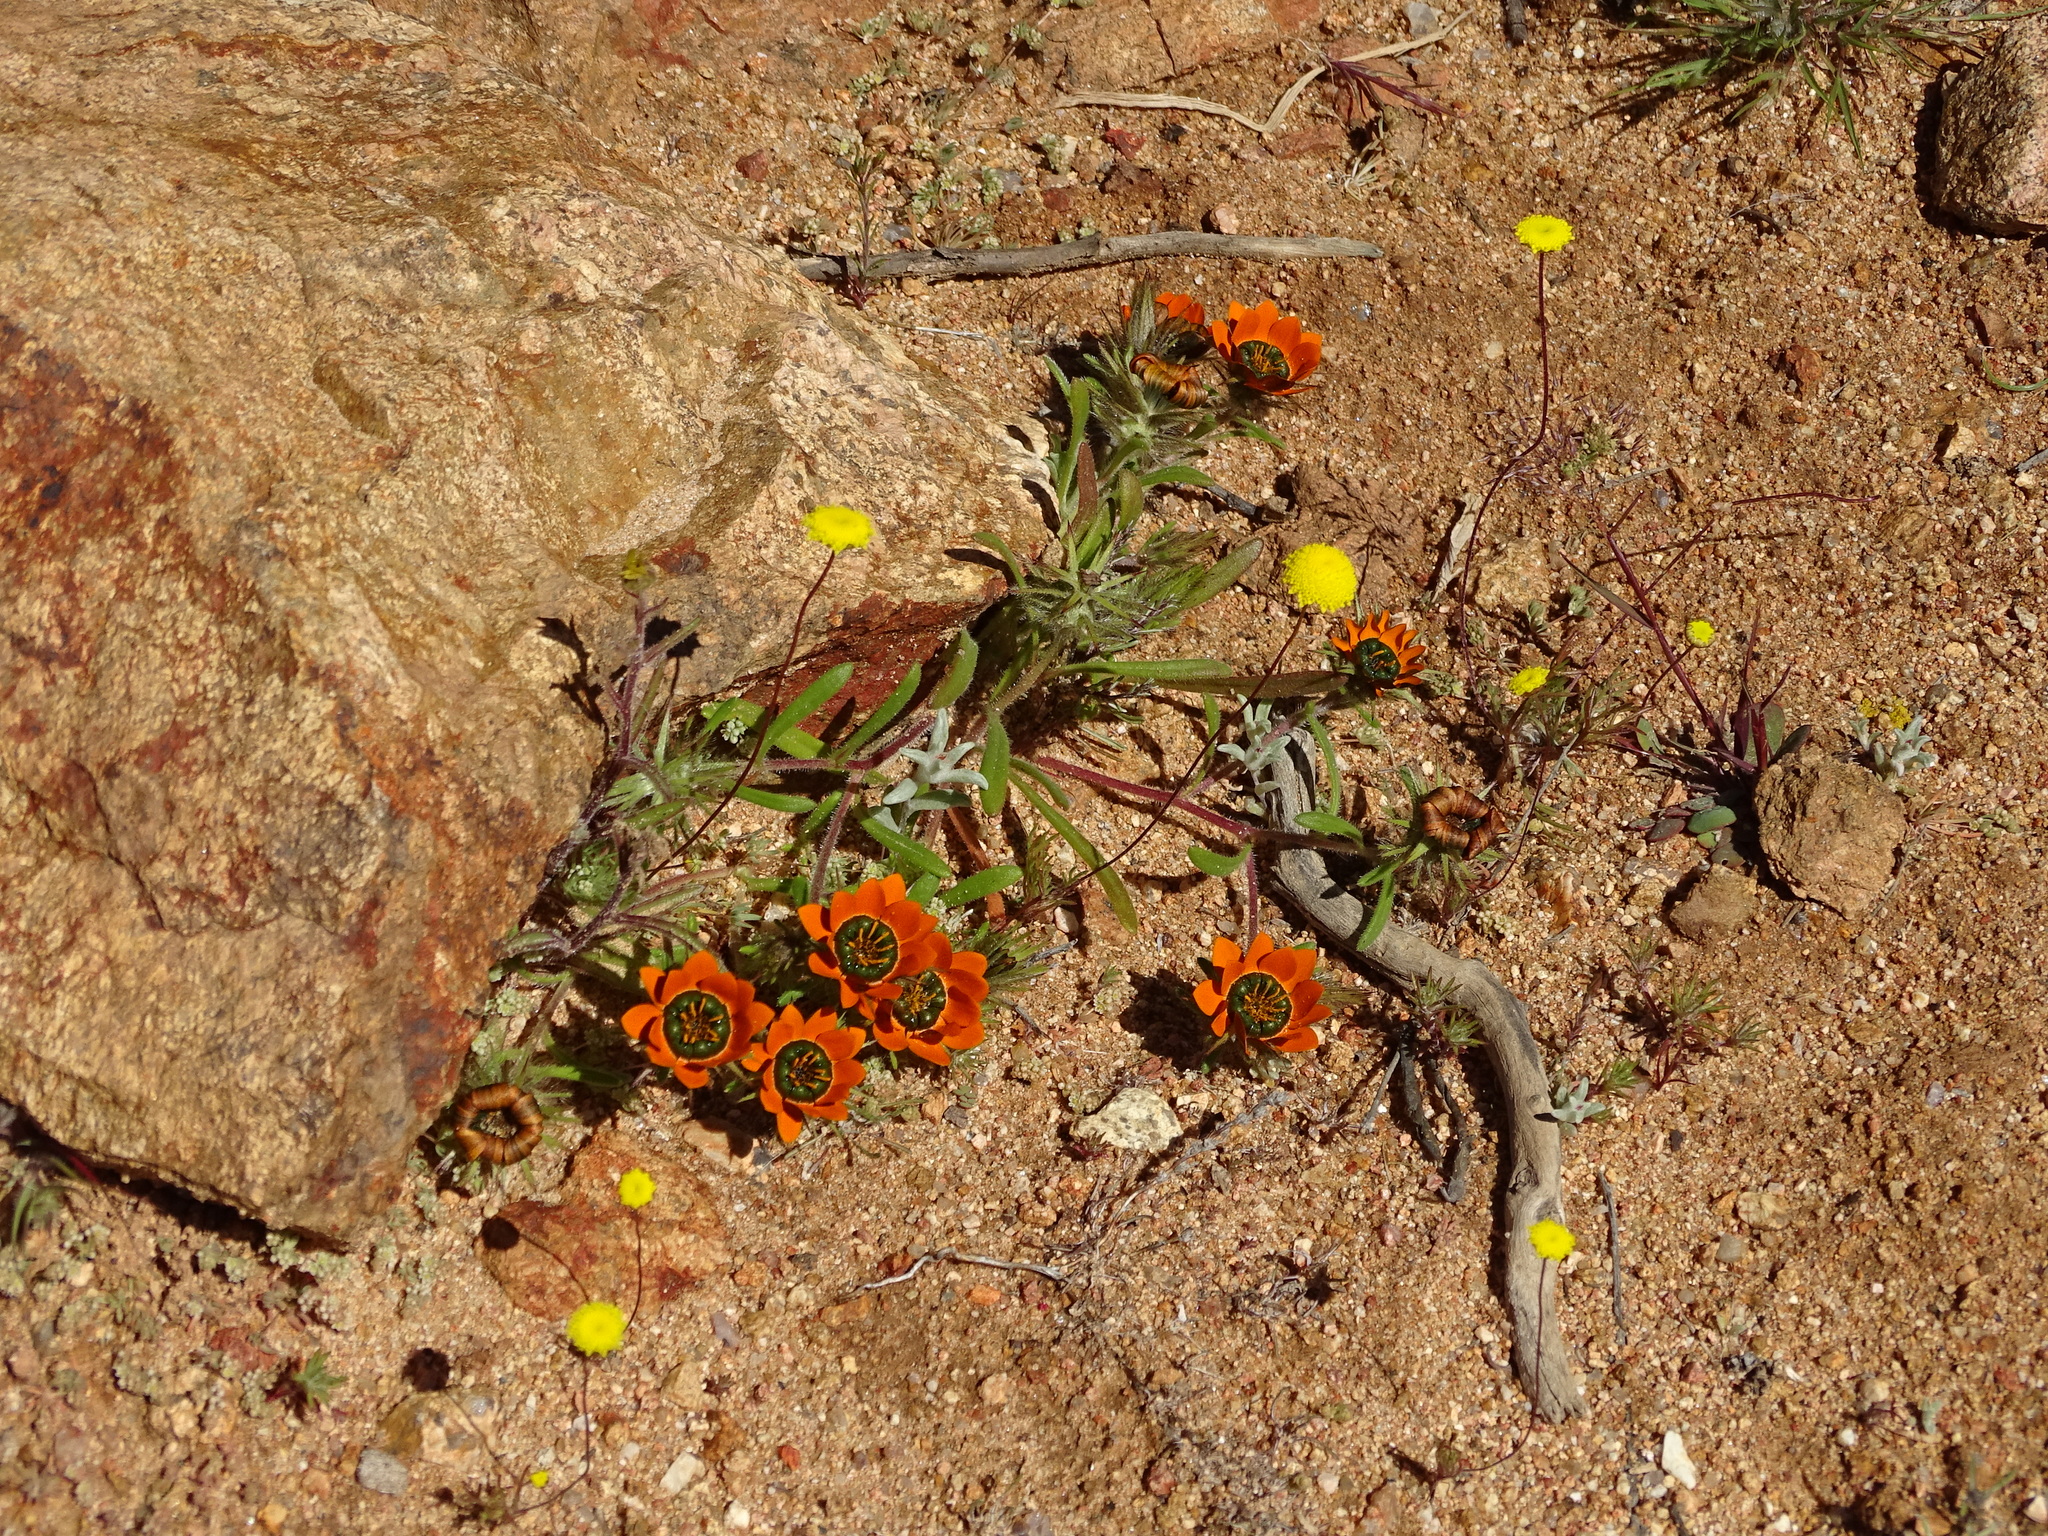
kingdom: Plantae
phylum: Tracheophyta
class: Magnoliopsida
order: Asterales
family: Asteraceae
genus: Gorteria
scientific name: Gorteria diffusa
